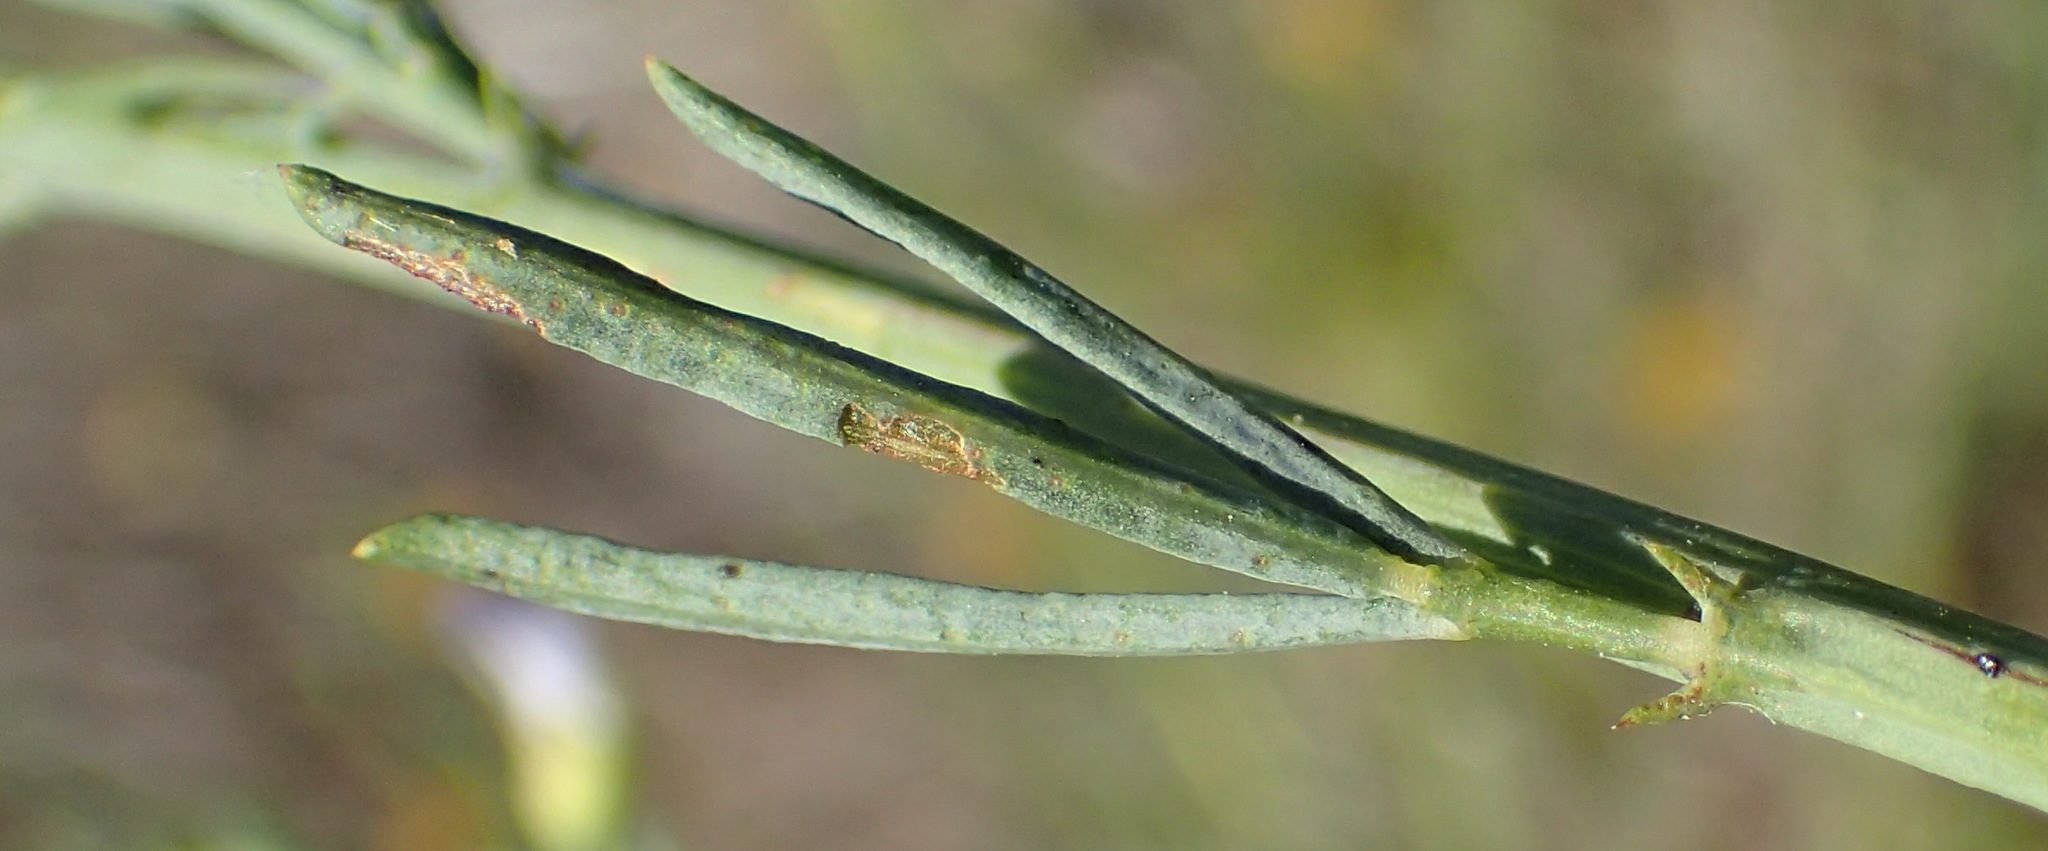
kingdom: Plantae
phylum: Tracheophyta
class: Magnoliopsida
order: Fabales
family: Fabaceae
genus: Psoralea
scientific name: Psoralea axillaris
